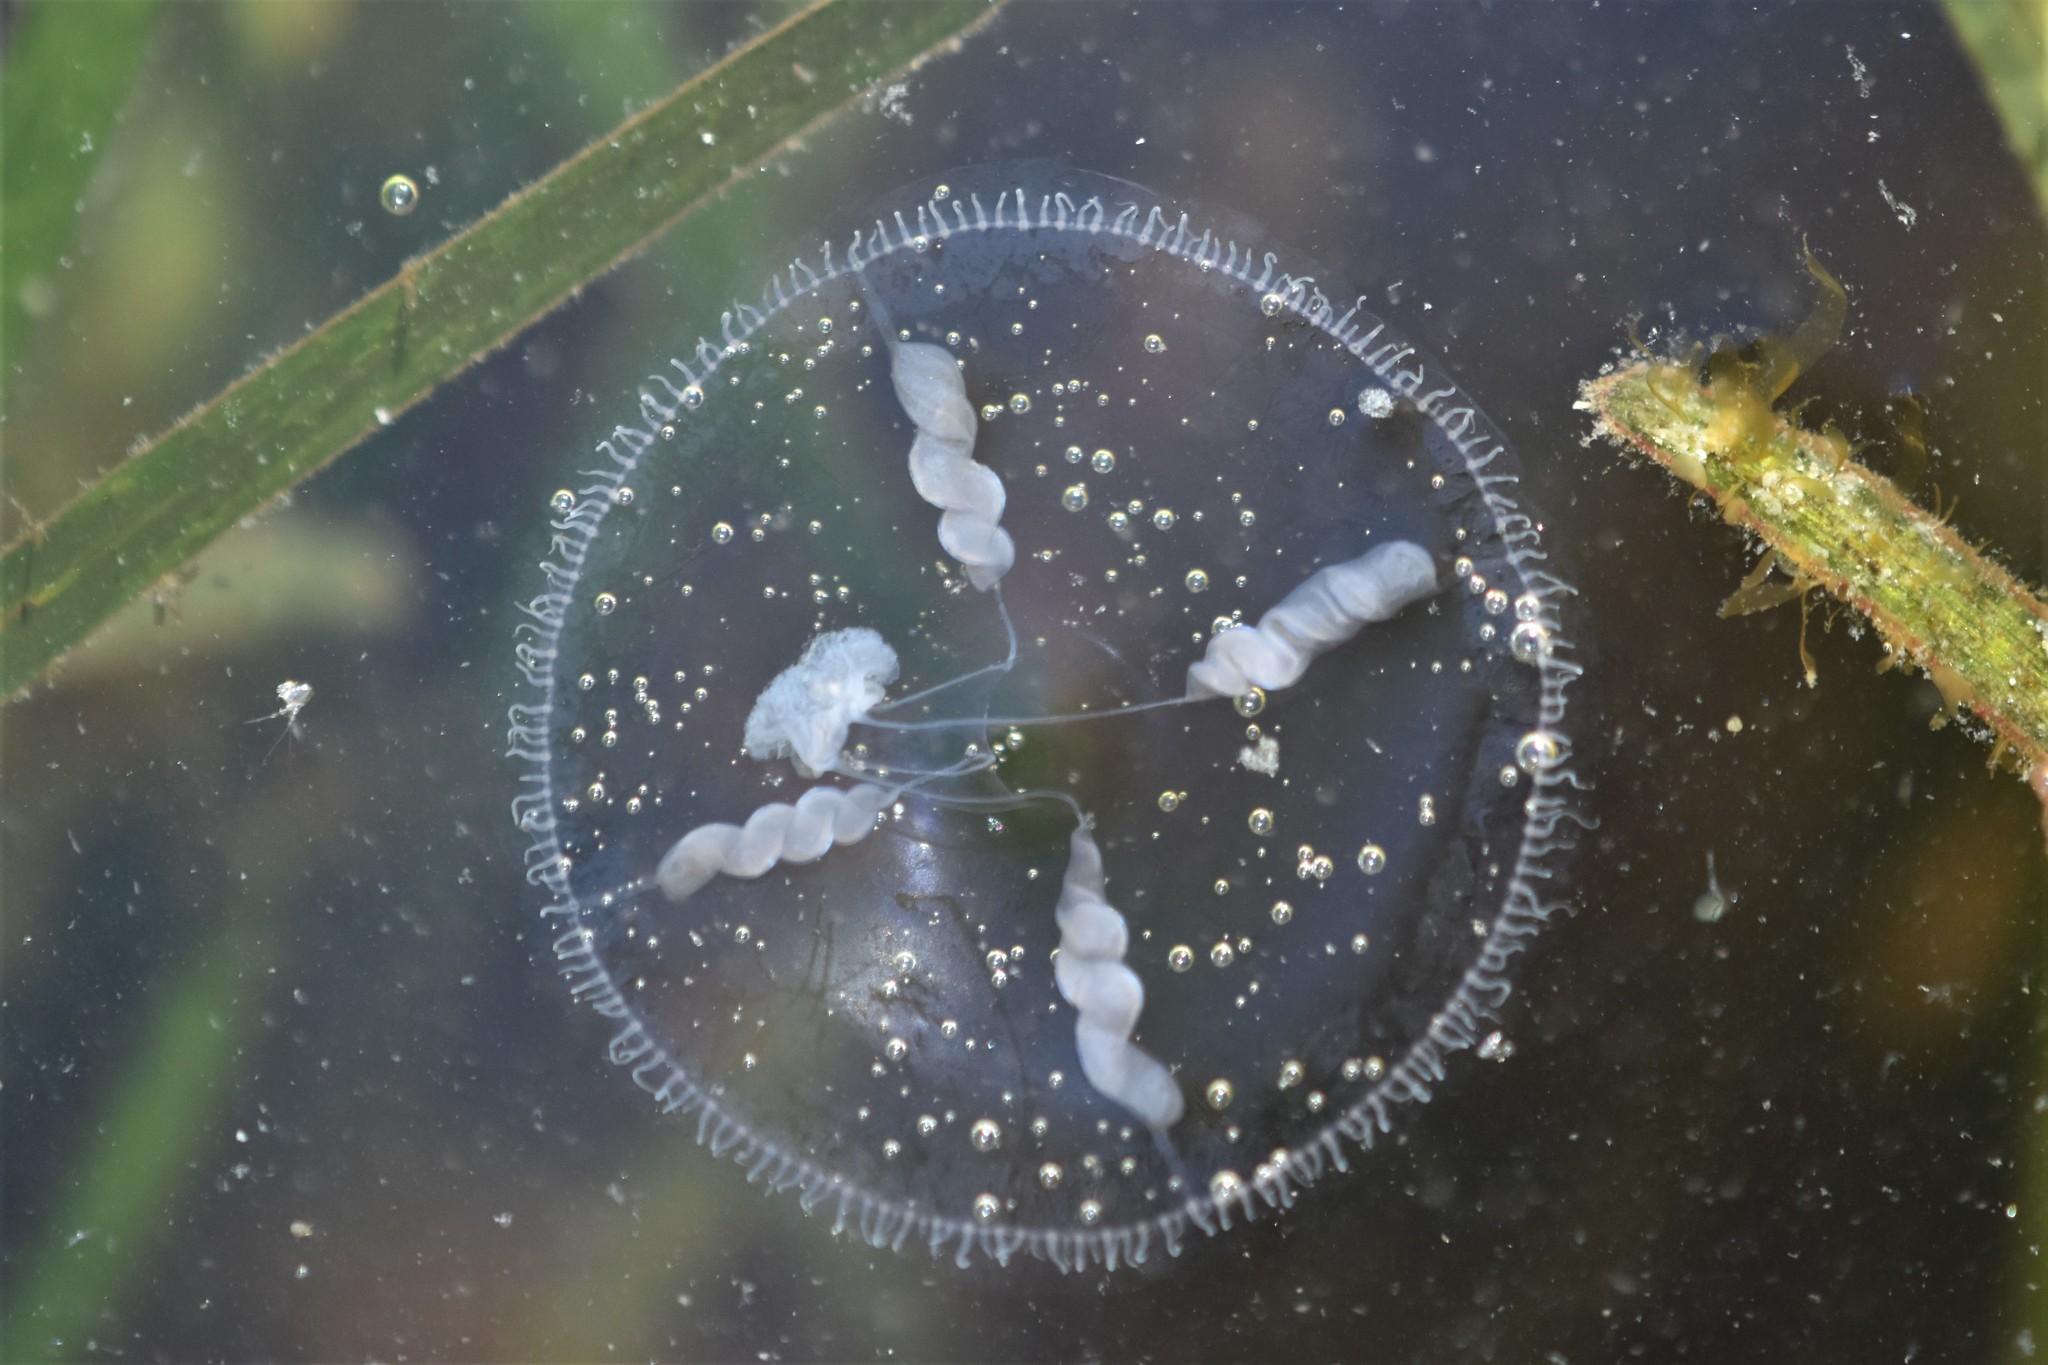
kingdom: Animalia
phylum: Cnidaria
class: Hydrozoa
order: Leptothecata
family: Eirenidae
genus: Eutonina
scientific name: Eutonina indicans
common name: Umbrella jellyfish
